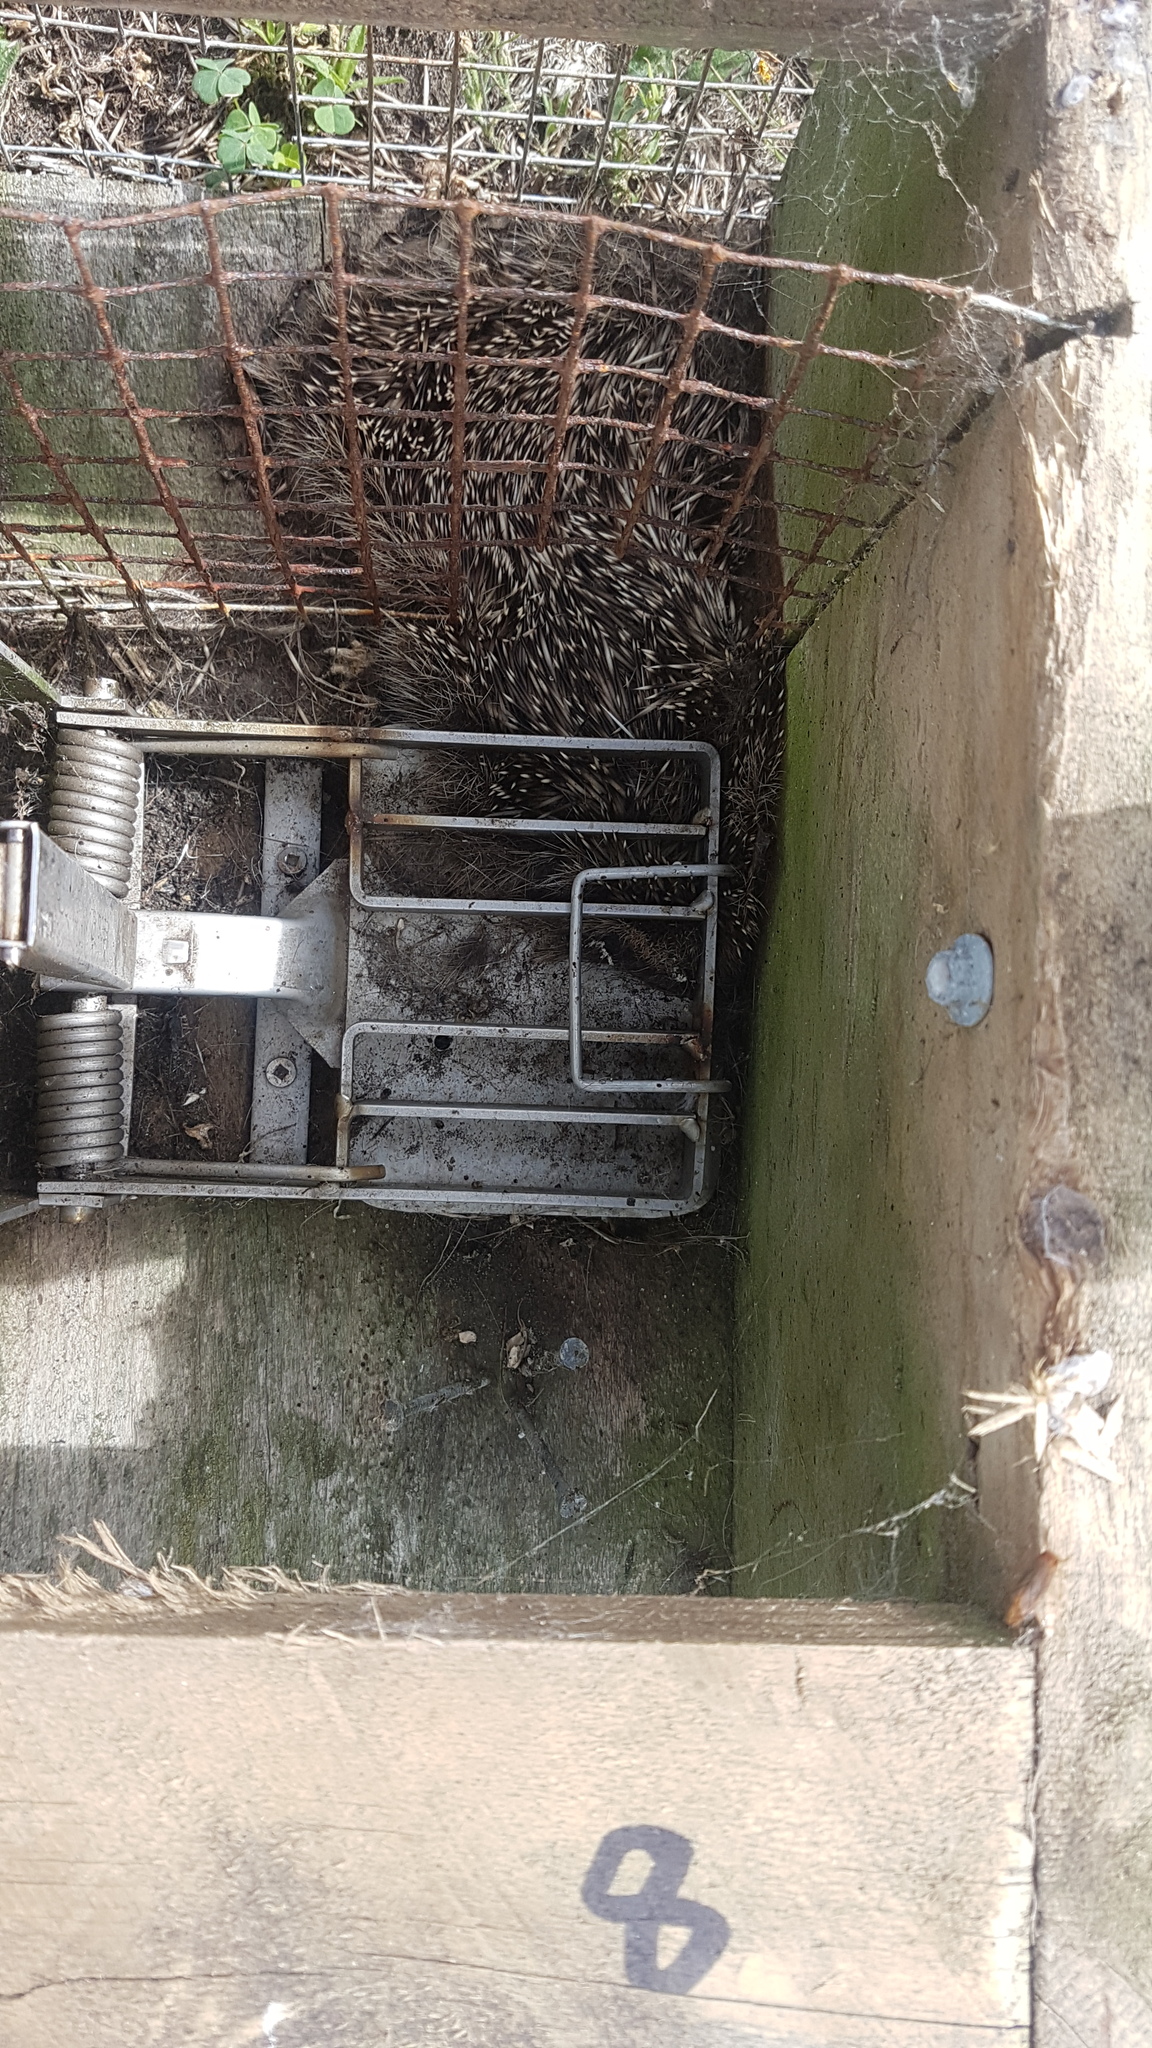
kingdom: Animalia
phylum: Chordata
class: Mammalia
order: Erinaceomorpha
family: Erinaceidae
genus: Erinaceus
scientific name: Erinaceus europaeus
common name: West european hedgehog
